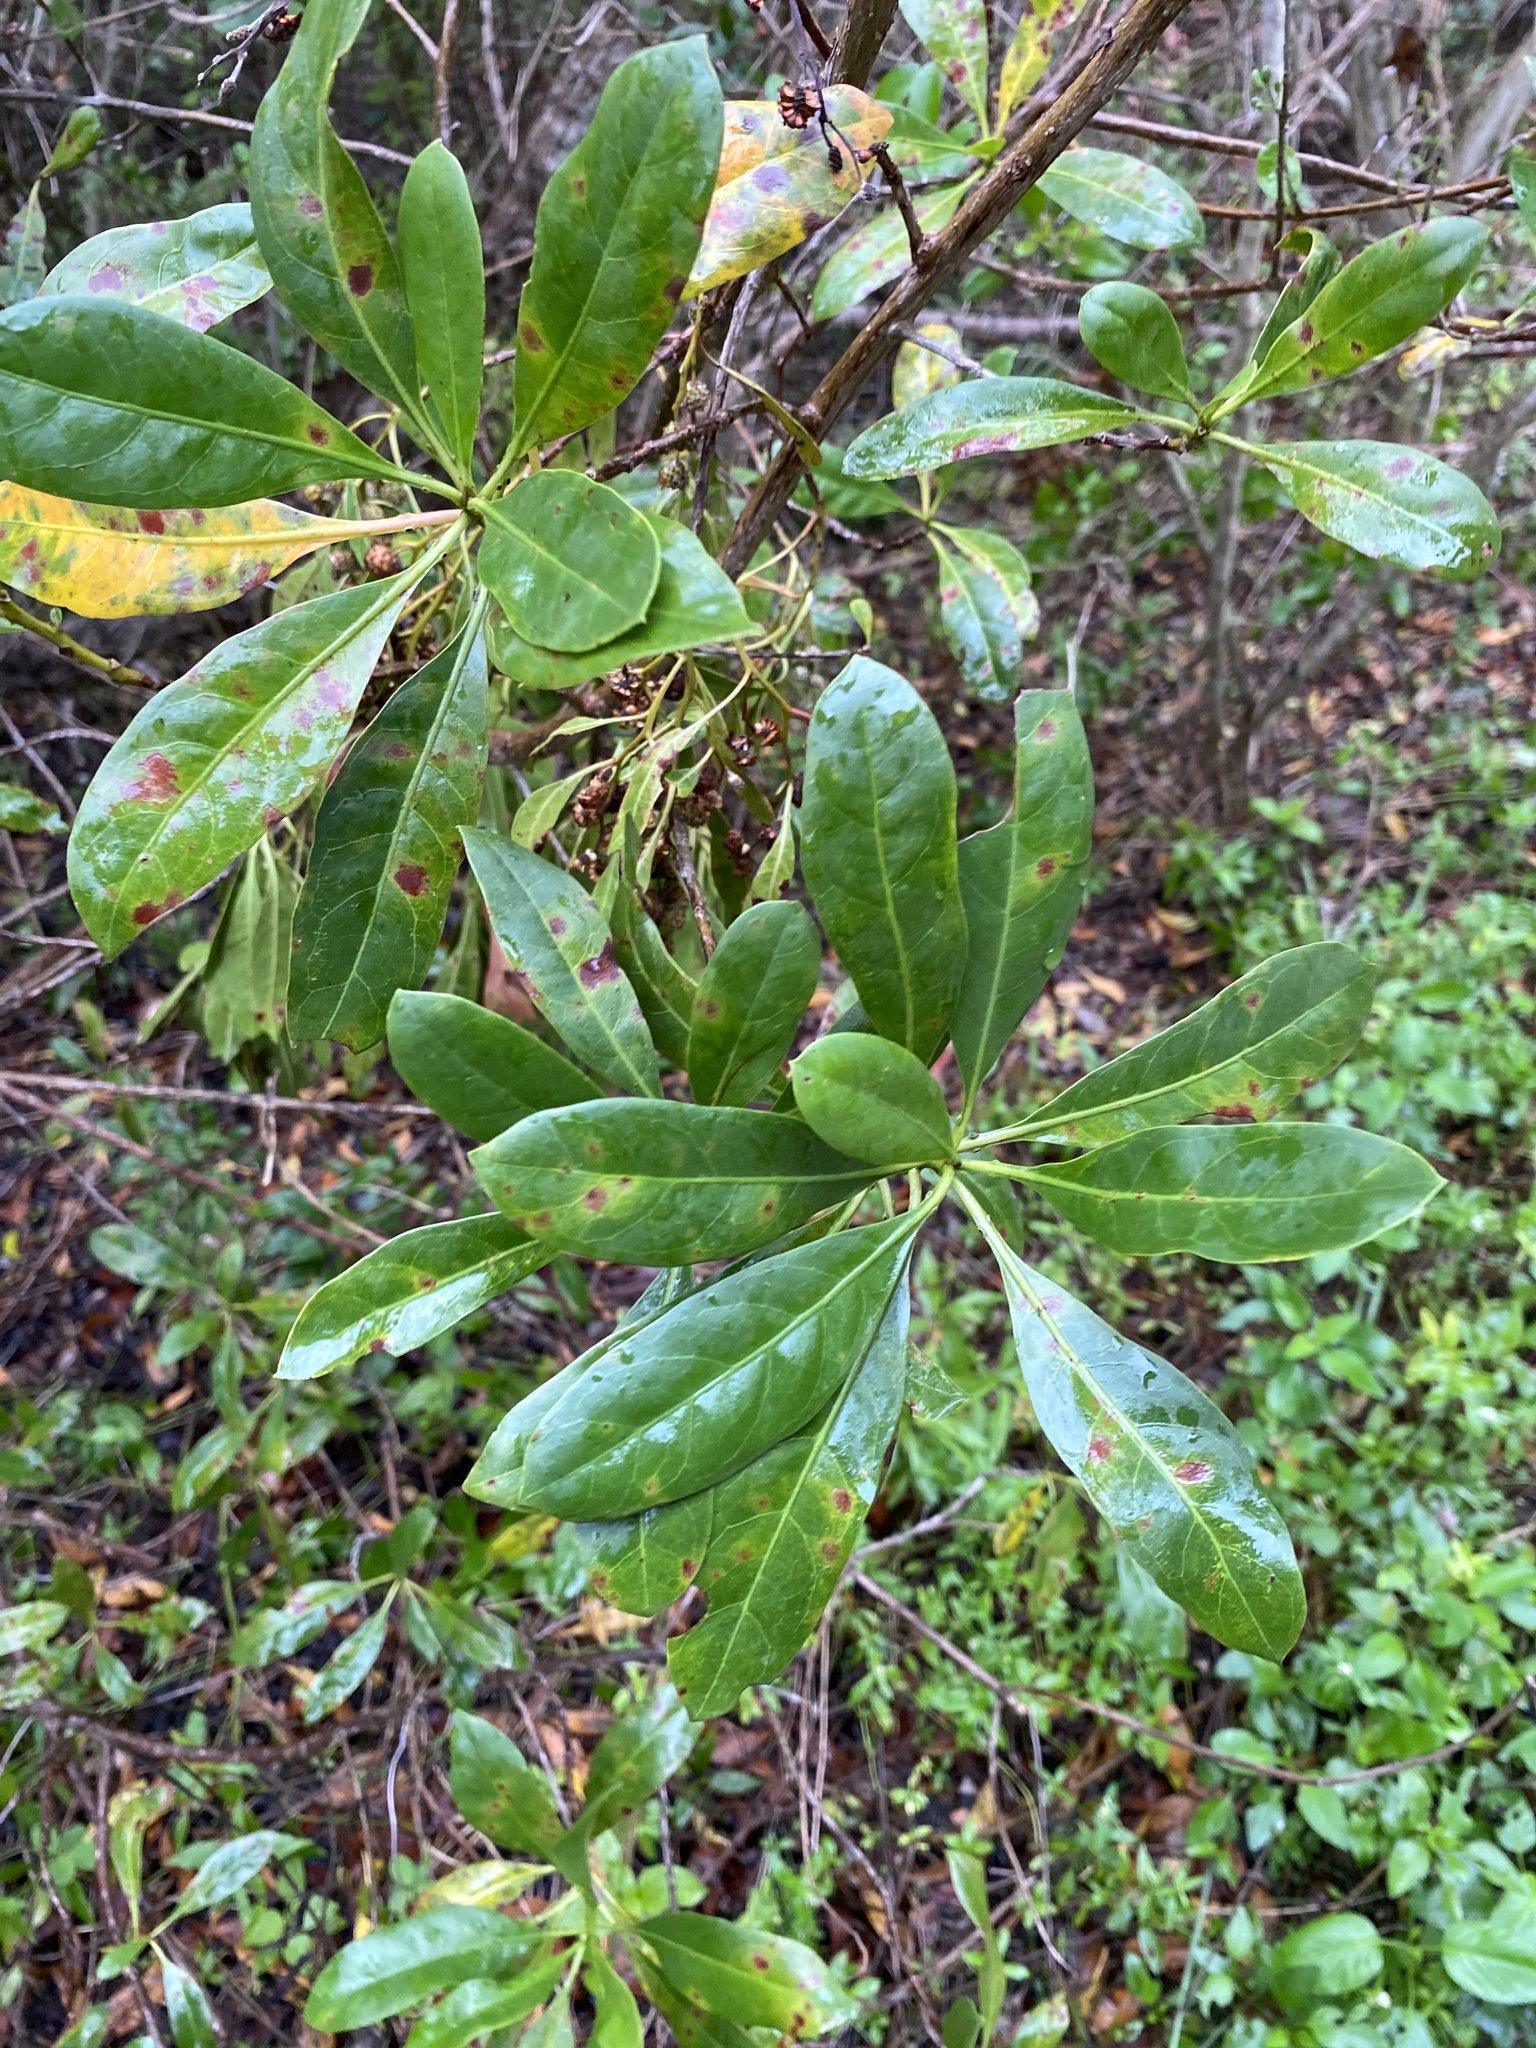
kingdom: Plantae
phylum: Tracheophyta
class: Magnoliopsida
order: Myrtales
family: Combretaceae
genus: Conocarpus
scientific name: Conocarpus erectus
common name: Button mangrove
